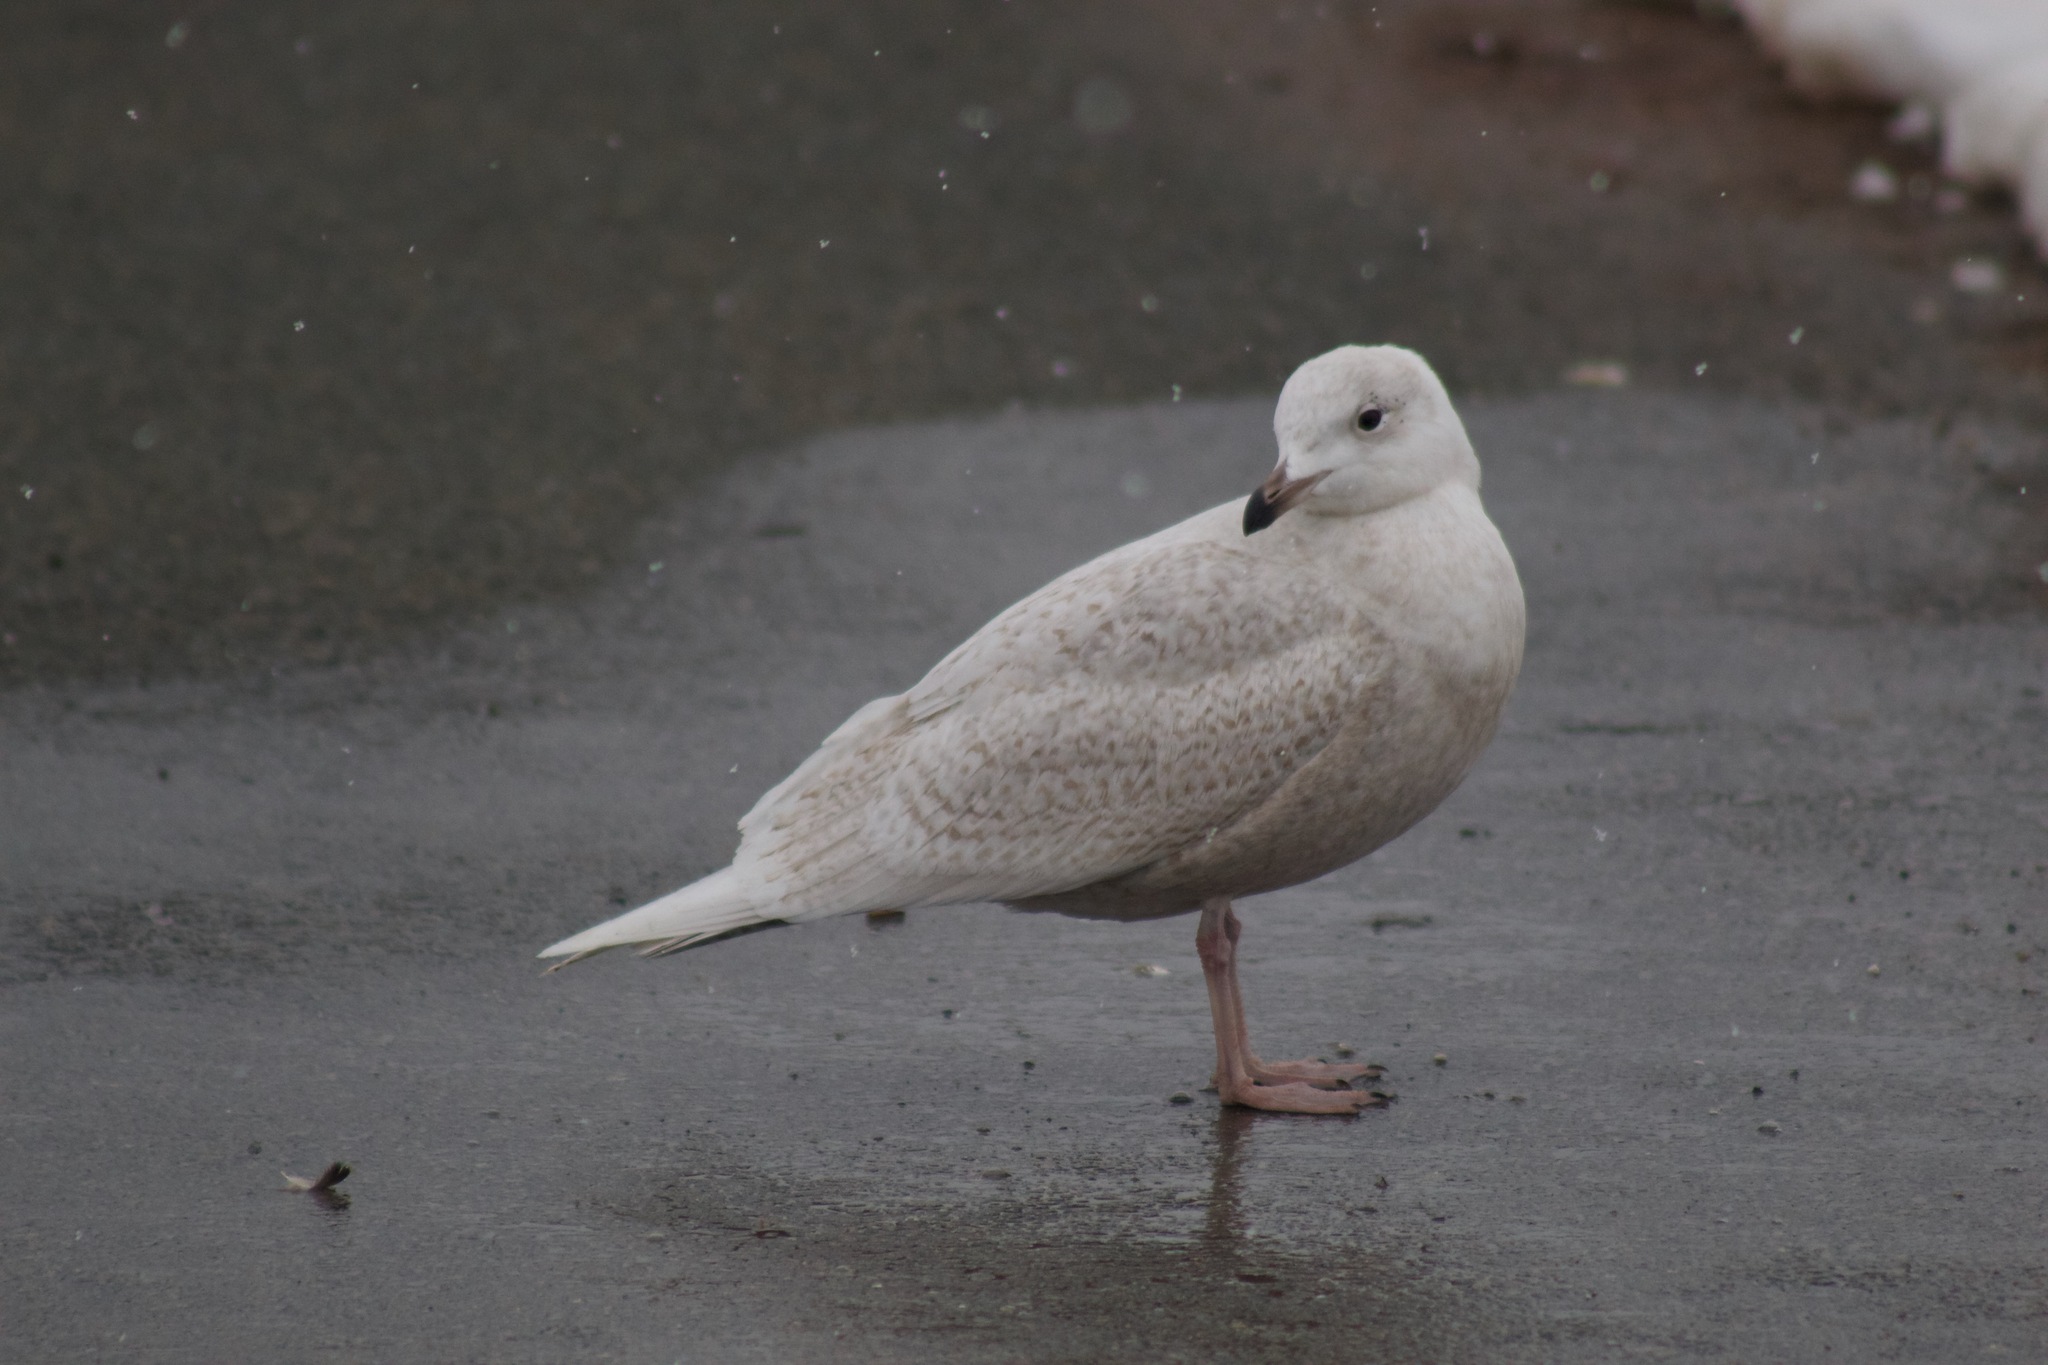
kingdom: Animalia
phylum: Chordata
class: Aves
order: Charadriiformes
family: Laridae
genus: Larus
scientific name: Larus glaucoides
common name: Iceland gull
